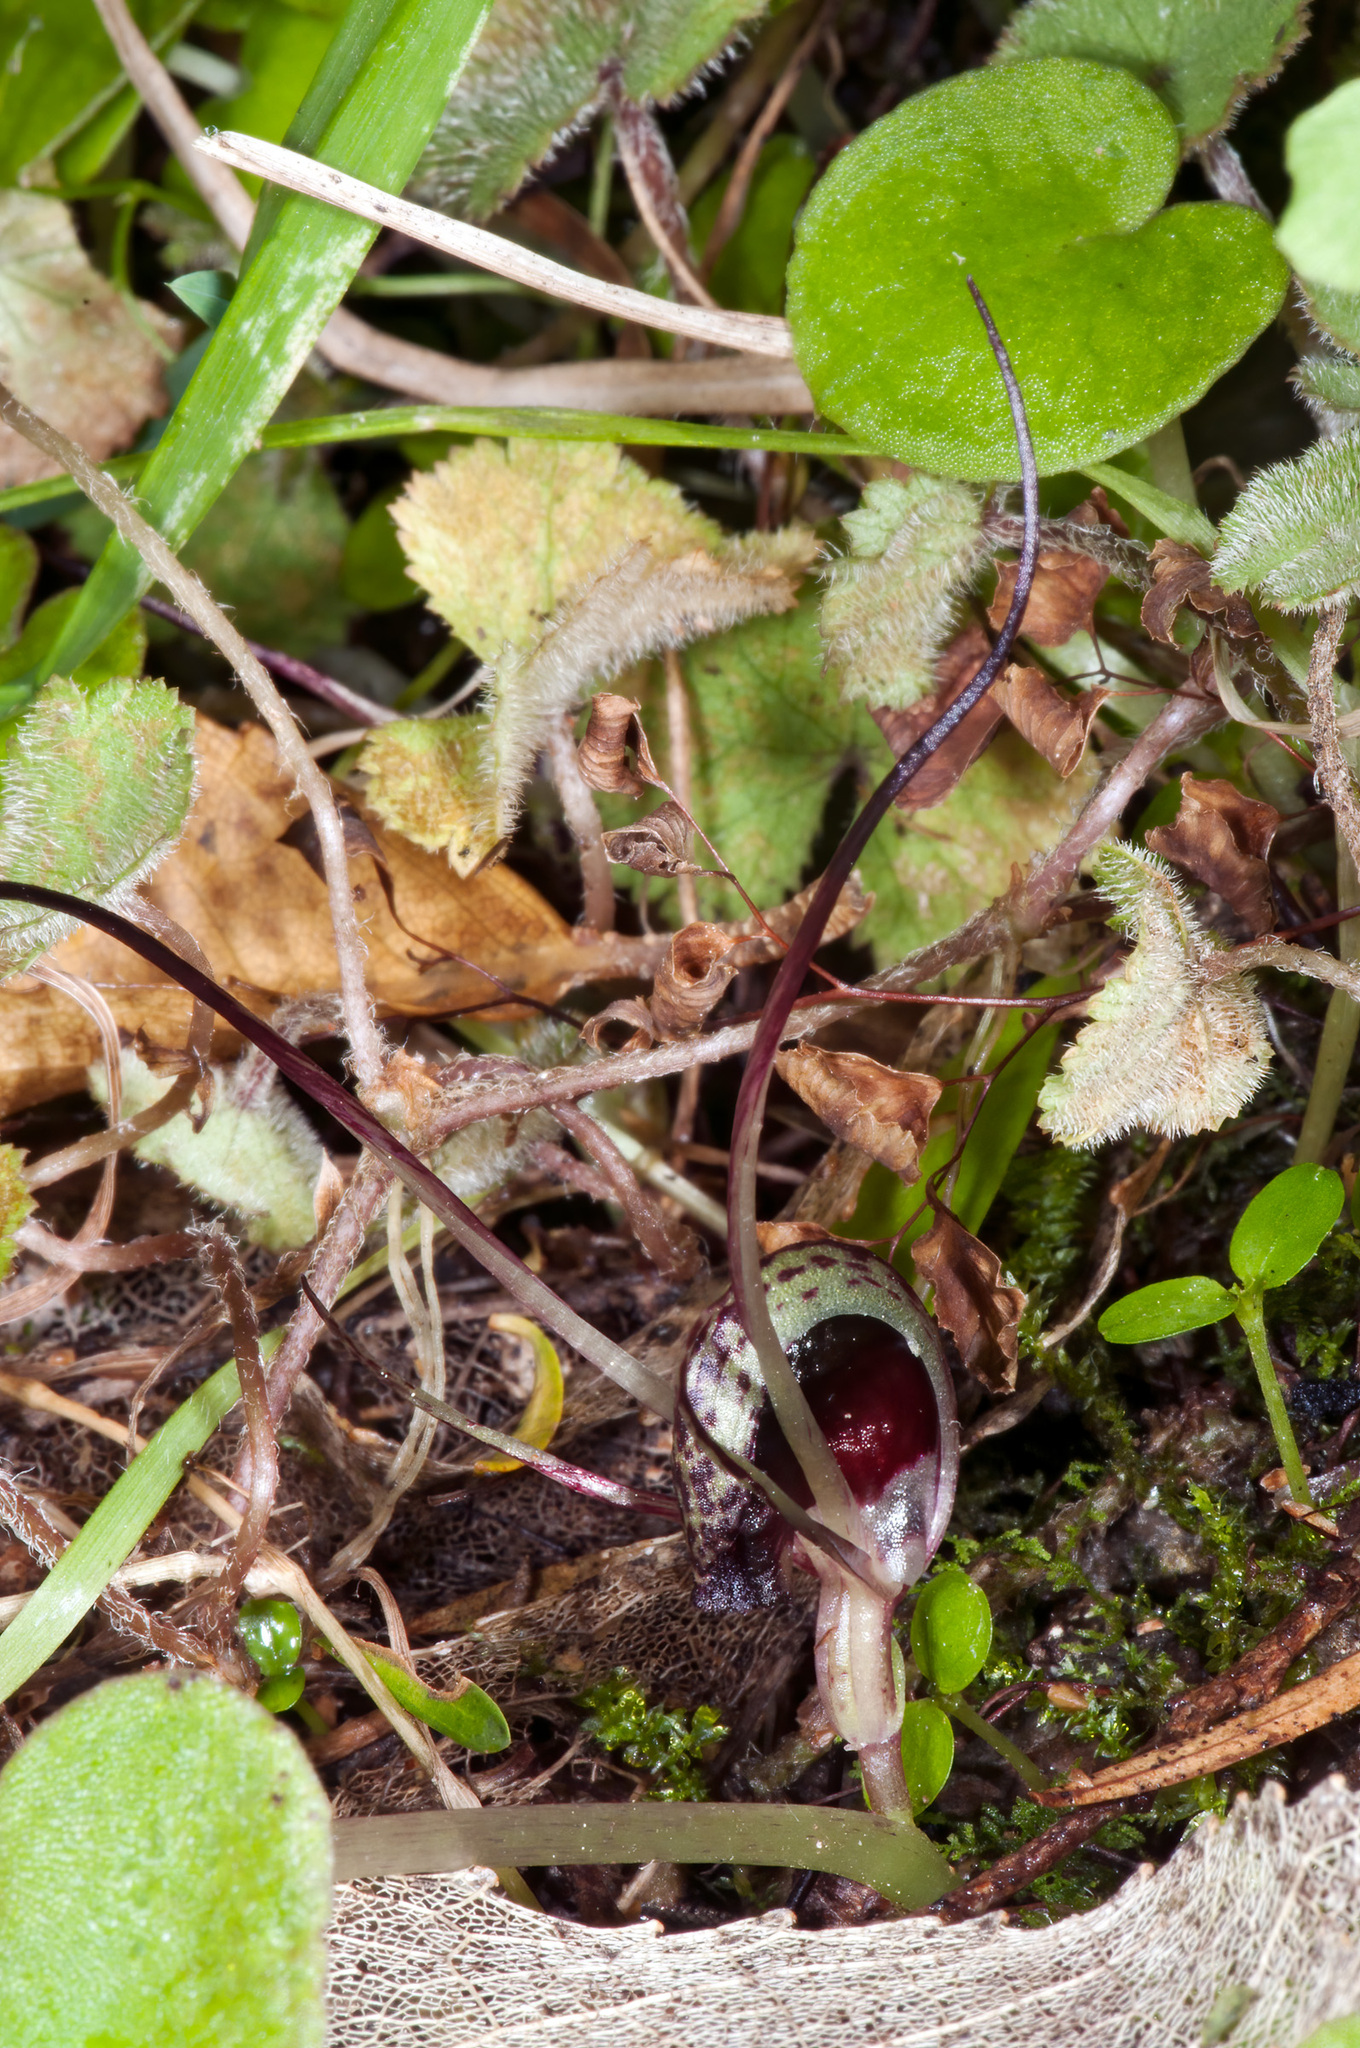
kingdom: Plantae
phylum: Tracheophyta
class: Liliopsida
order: Asparagales
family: Orchidaceae
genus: Corybas
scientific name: Corybas macranthus
